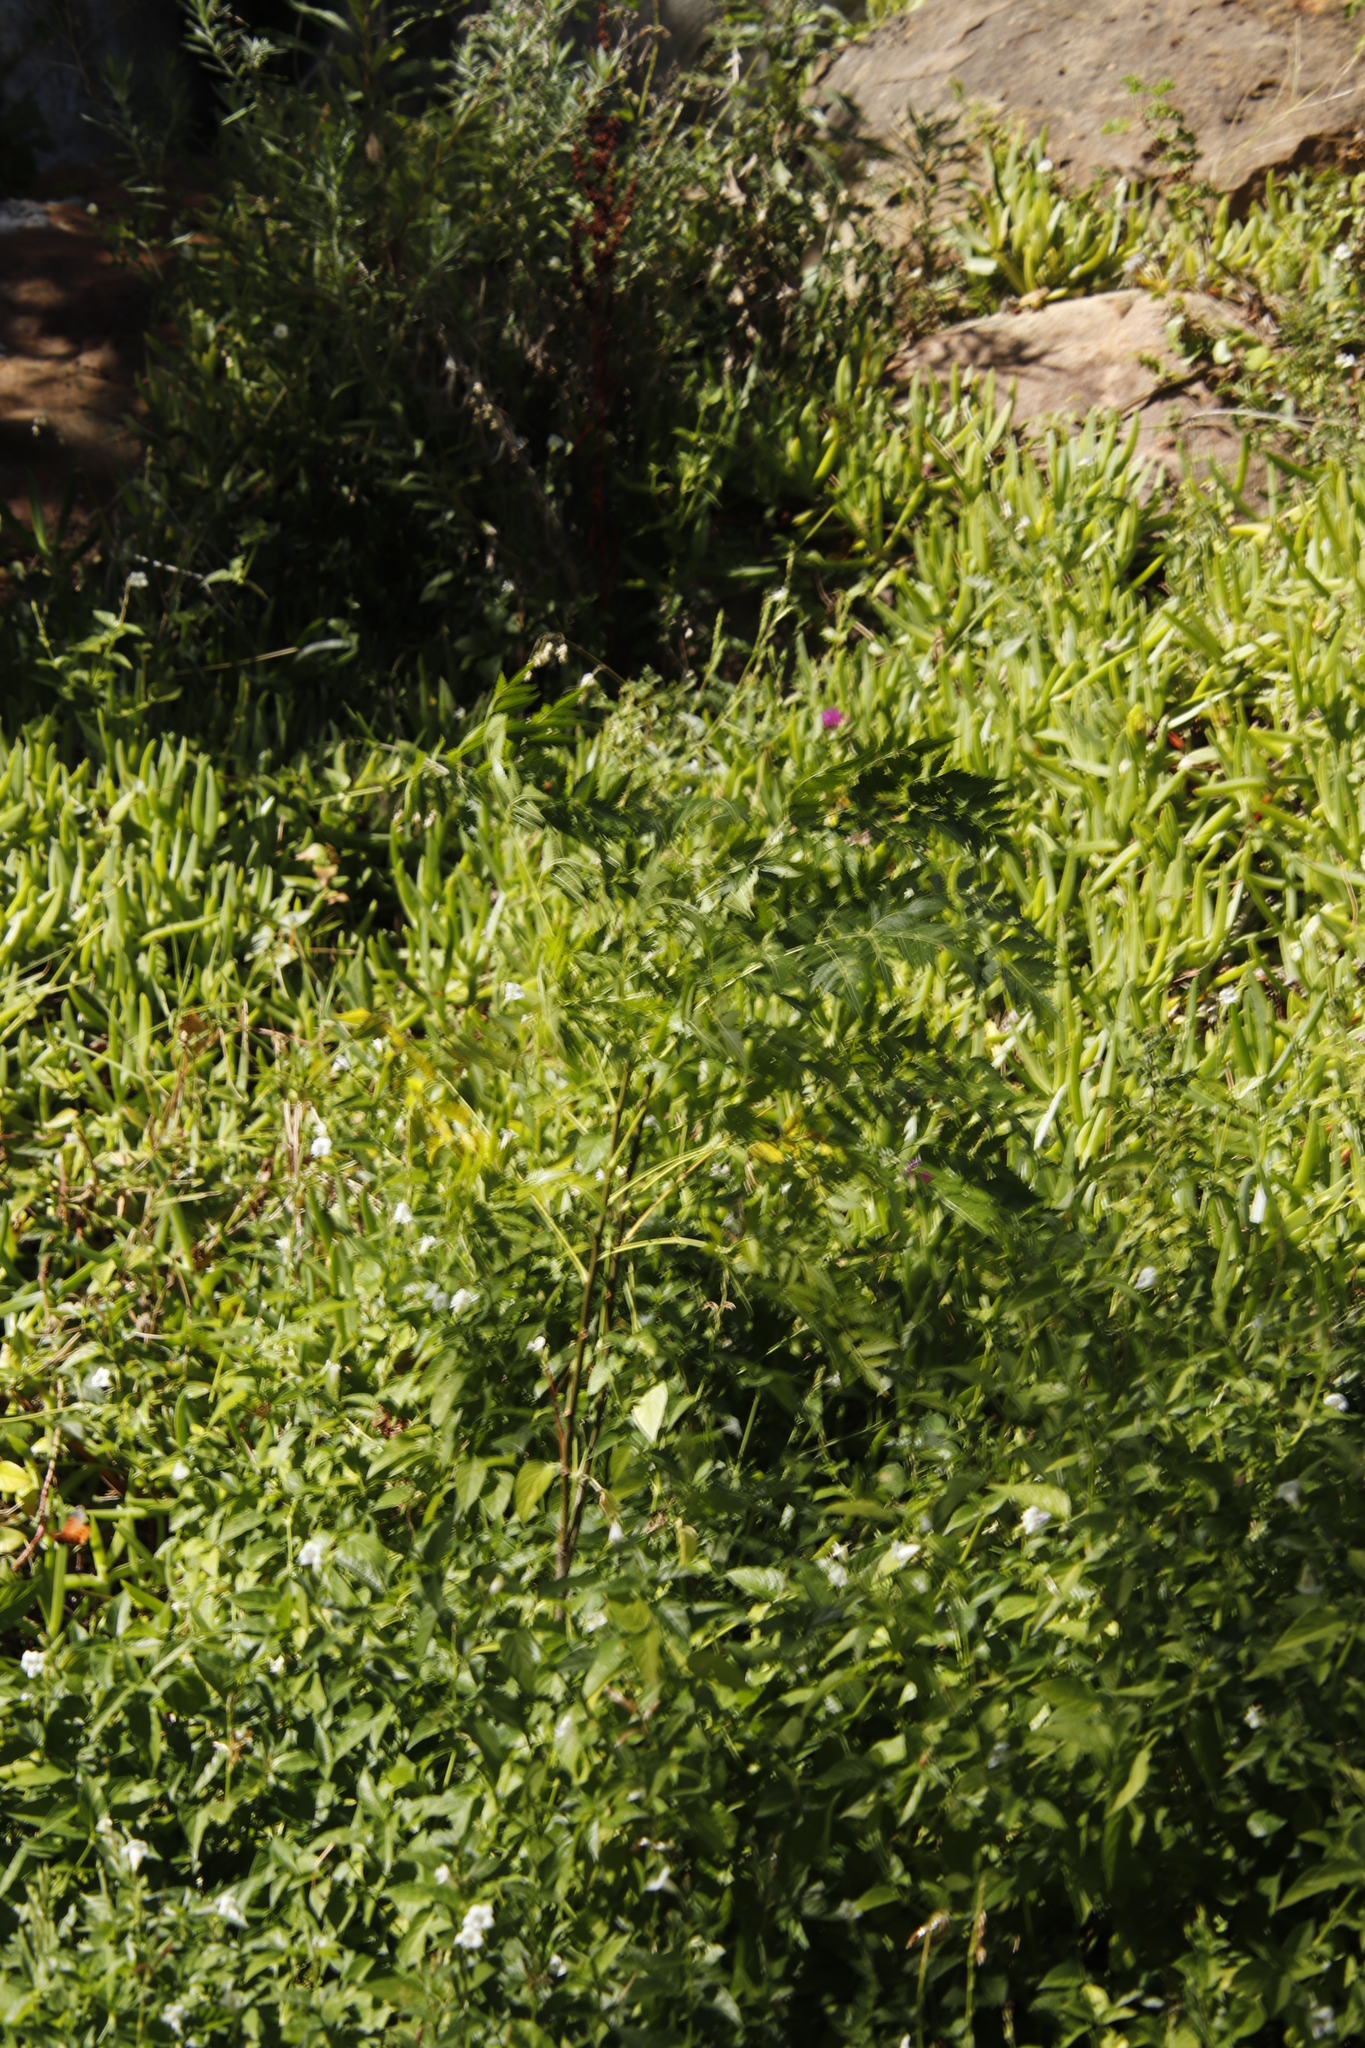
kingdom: Plantae
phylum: Tracheophyta
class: Magnoliopsida
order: Sapindales
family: Meliaceae
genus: Melia
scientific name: Melia azedarach
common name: Chinaberrytree
